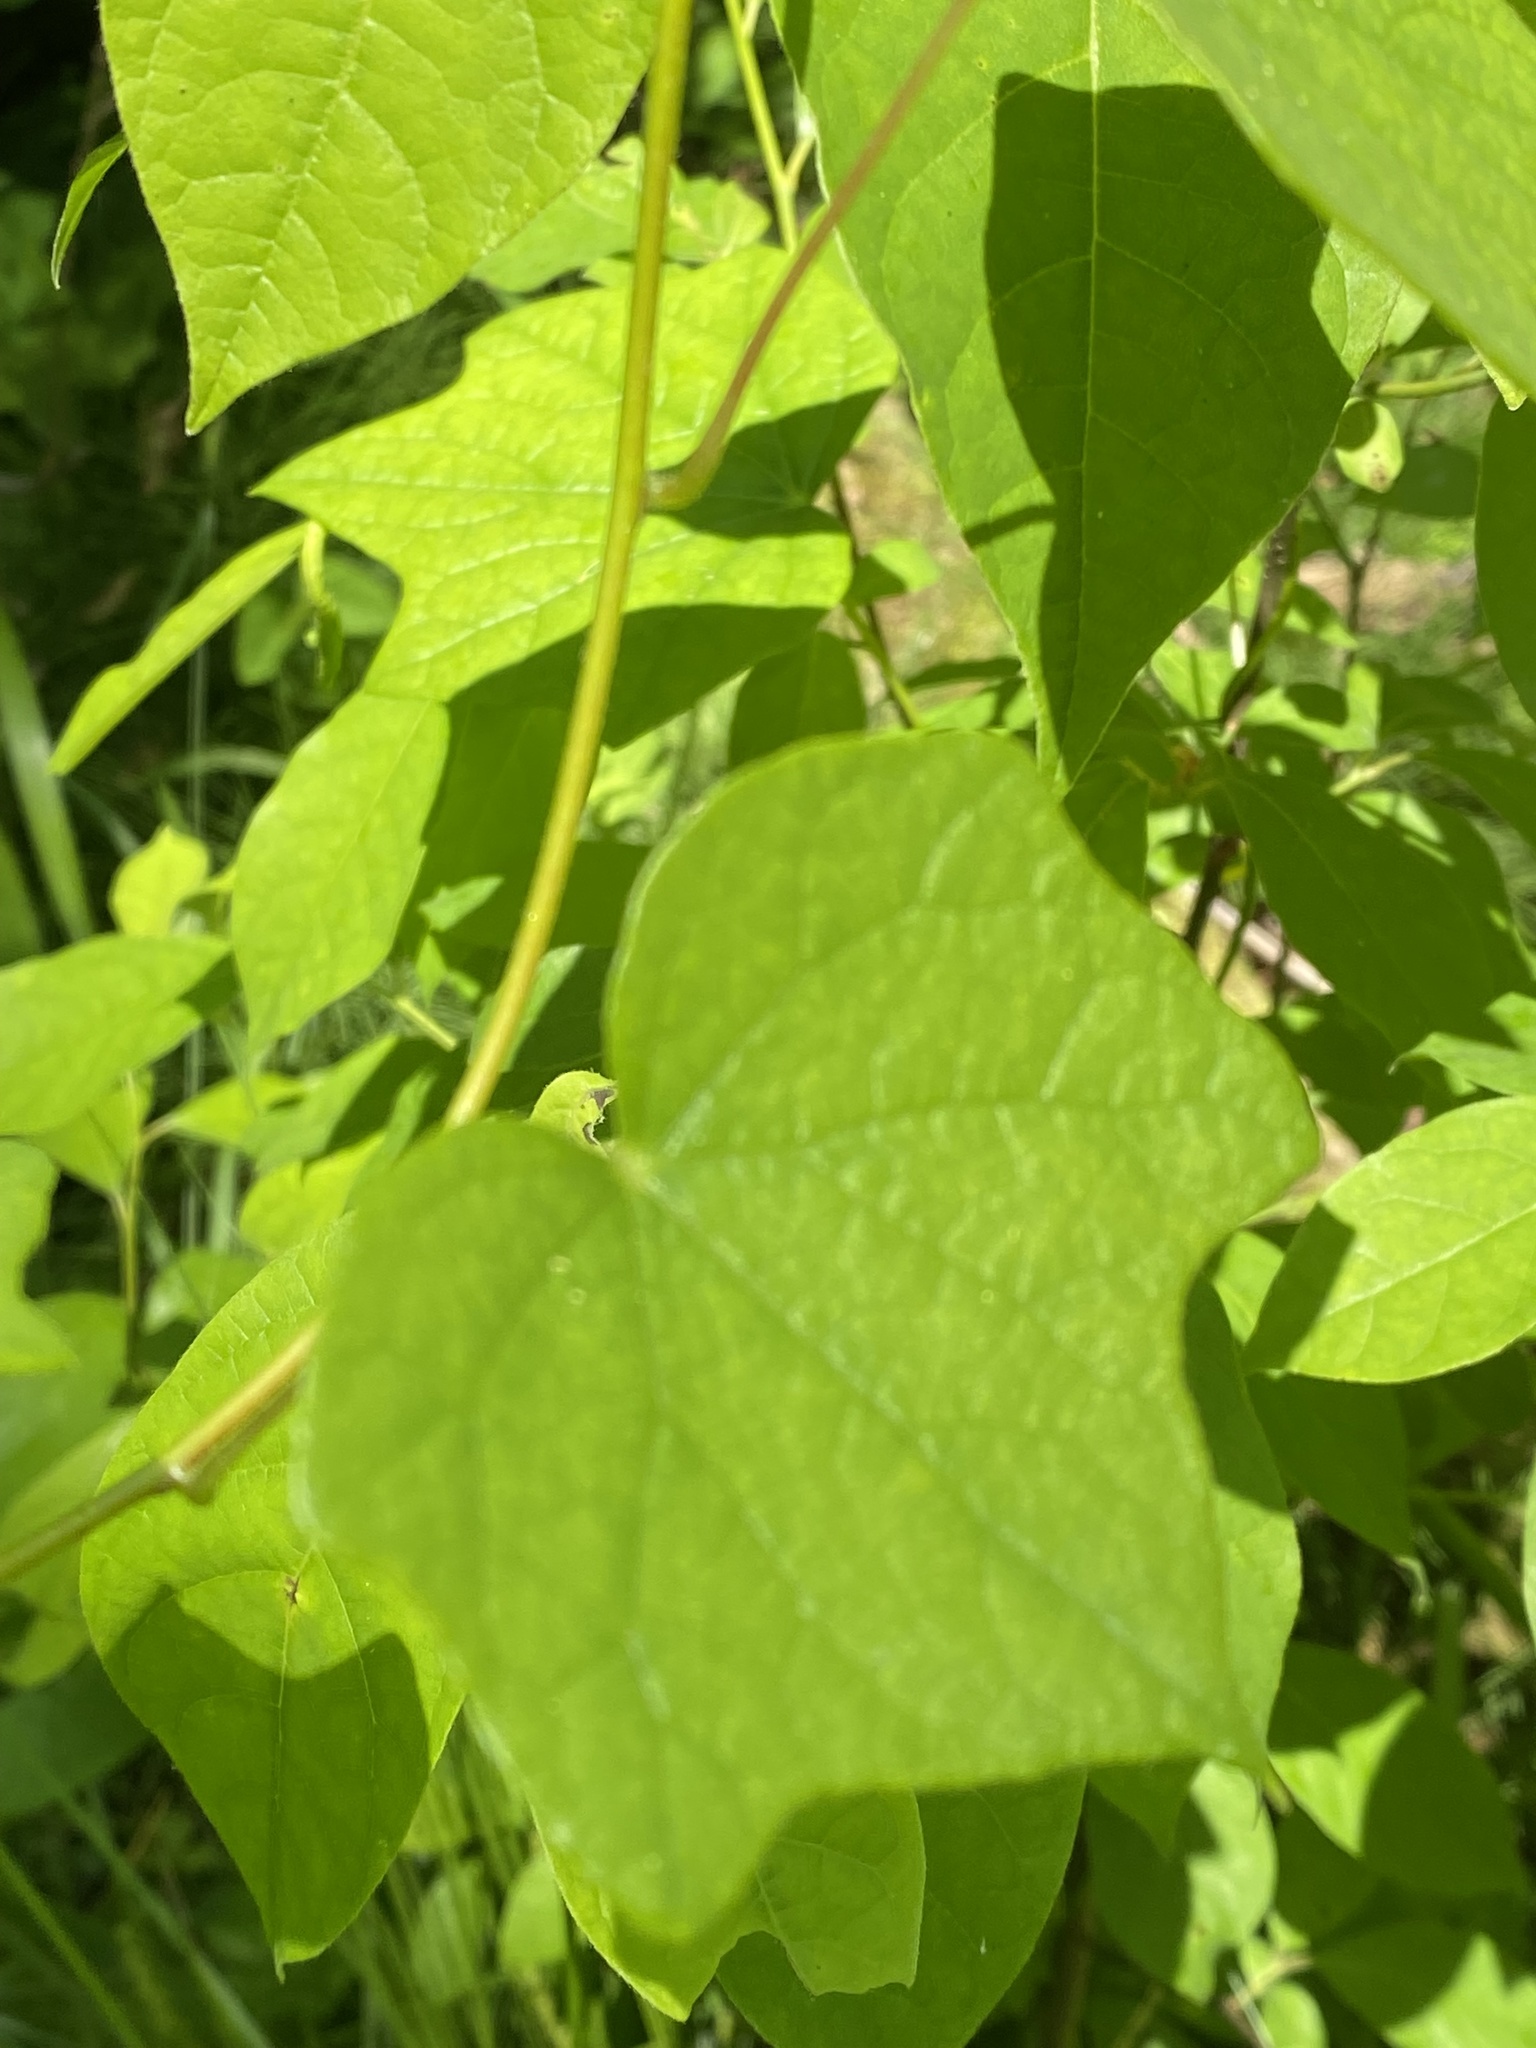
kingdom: Plantae
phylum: Tracheophyta
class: Magnoliopsida
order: Ranunculales
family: Menispermaceae
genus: Menispermum
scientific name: Menispermum canadense
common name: Moonseed
